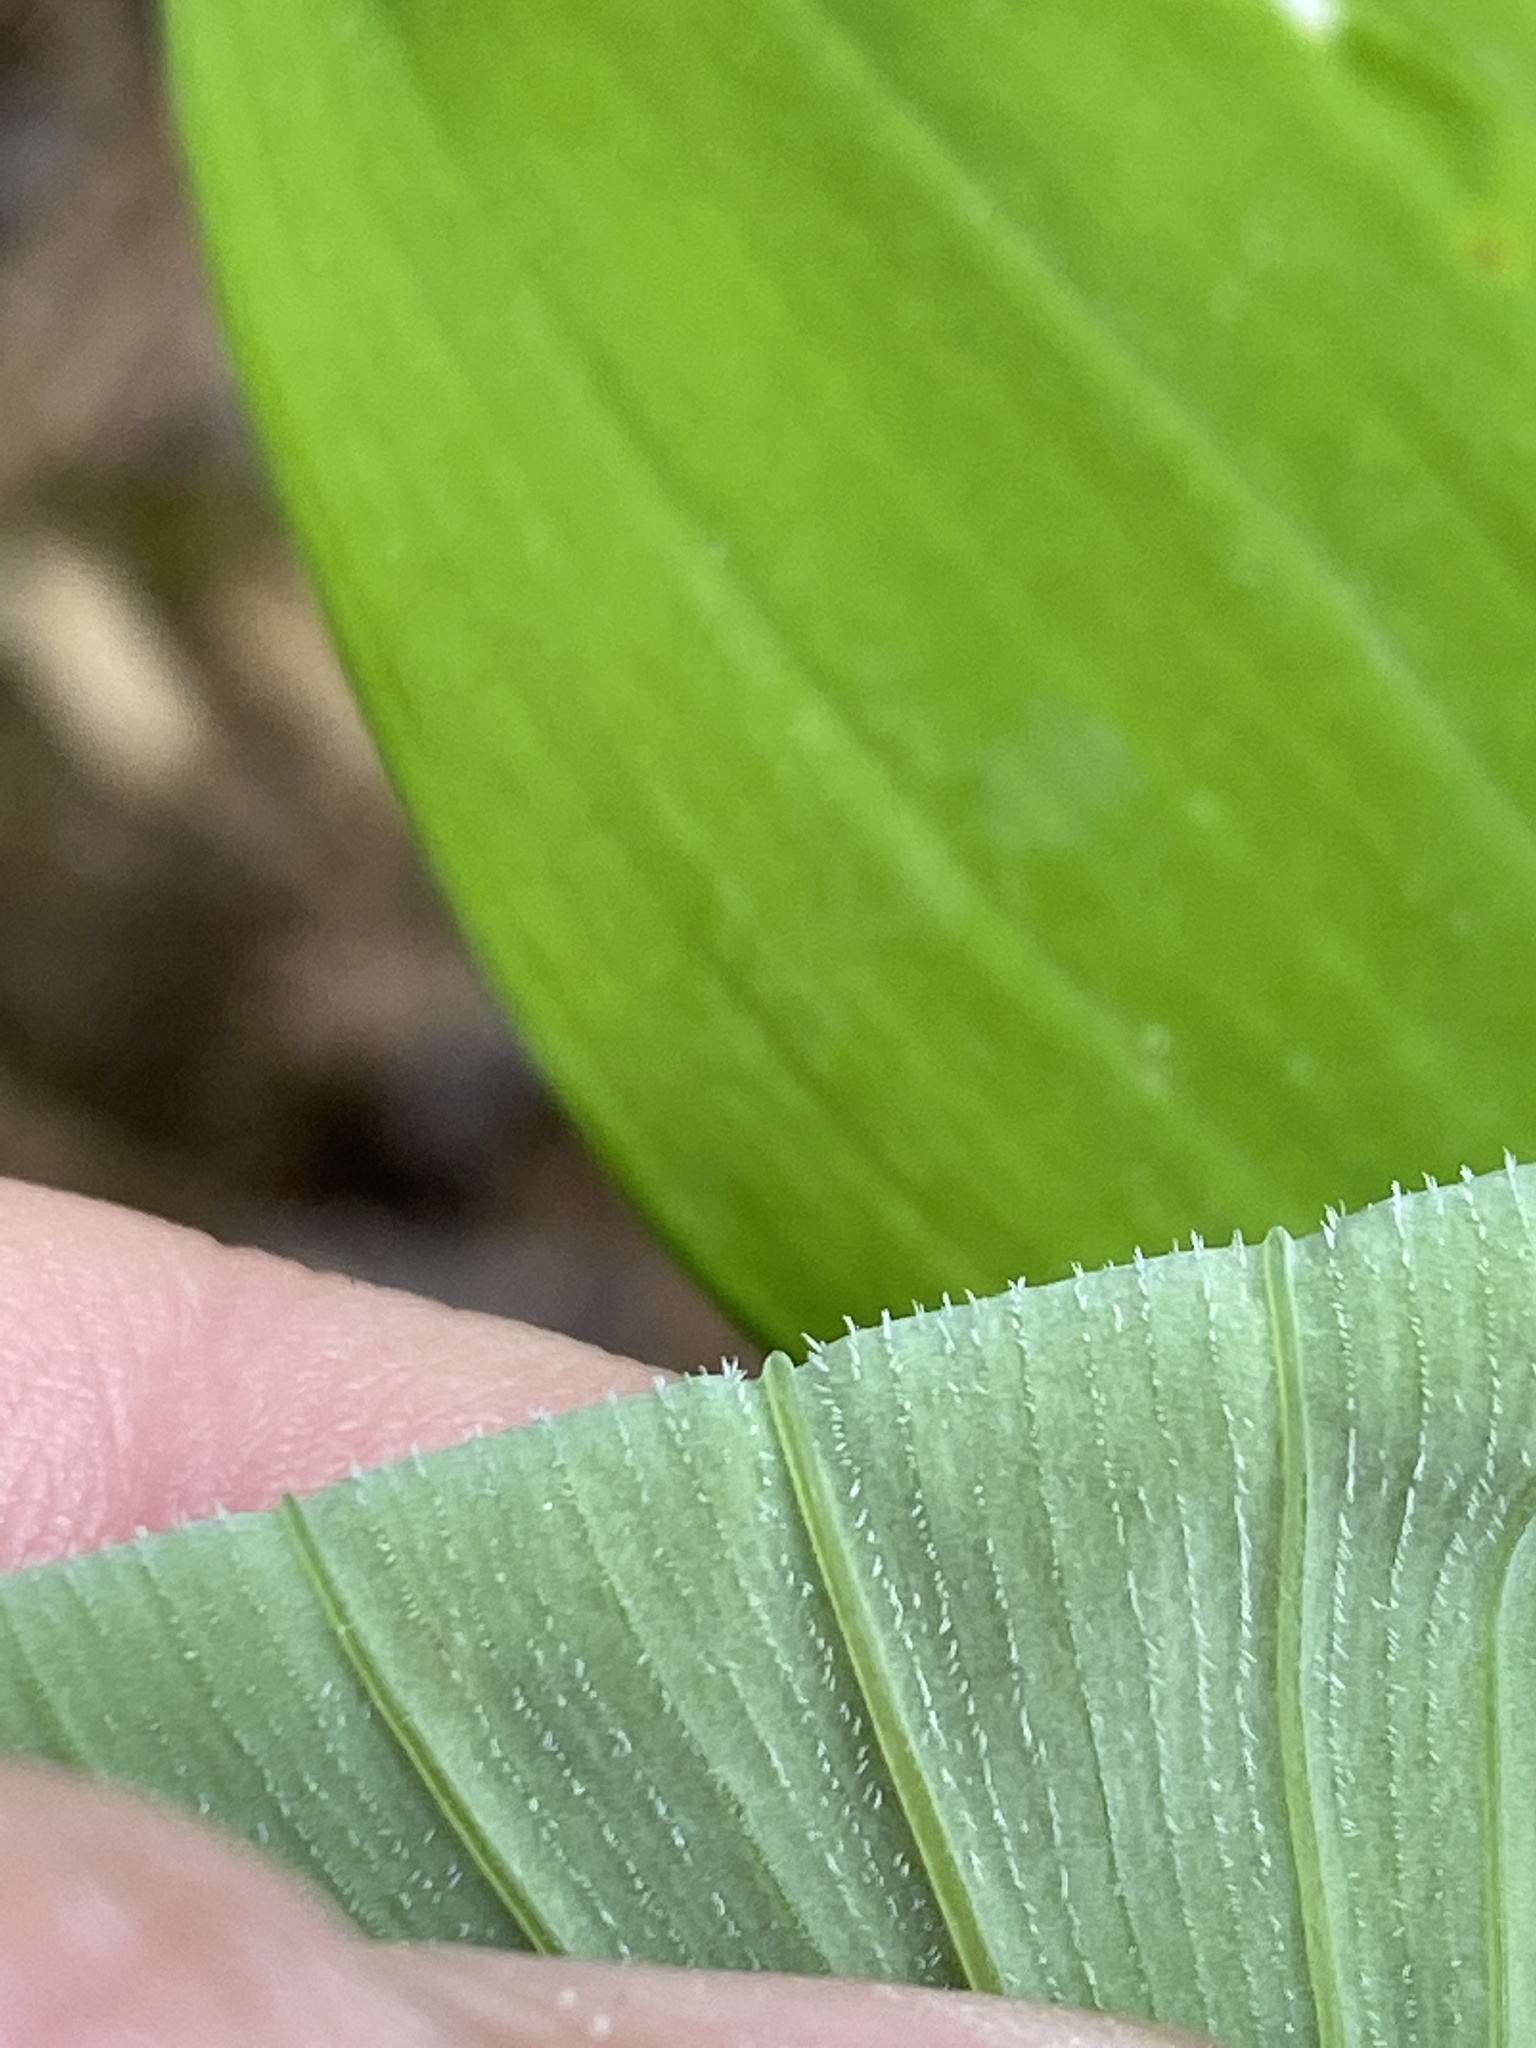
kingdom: Plantae
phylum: Tracheophyta
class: Liliopsida
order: Asparagales
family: Asparagaceae
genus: Polygonatum
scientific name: Polygonatum pubescens
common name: Downy solomon's seal
